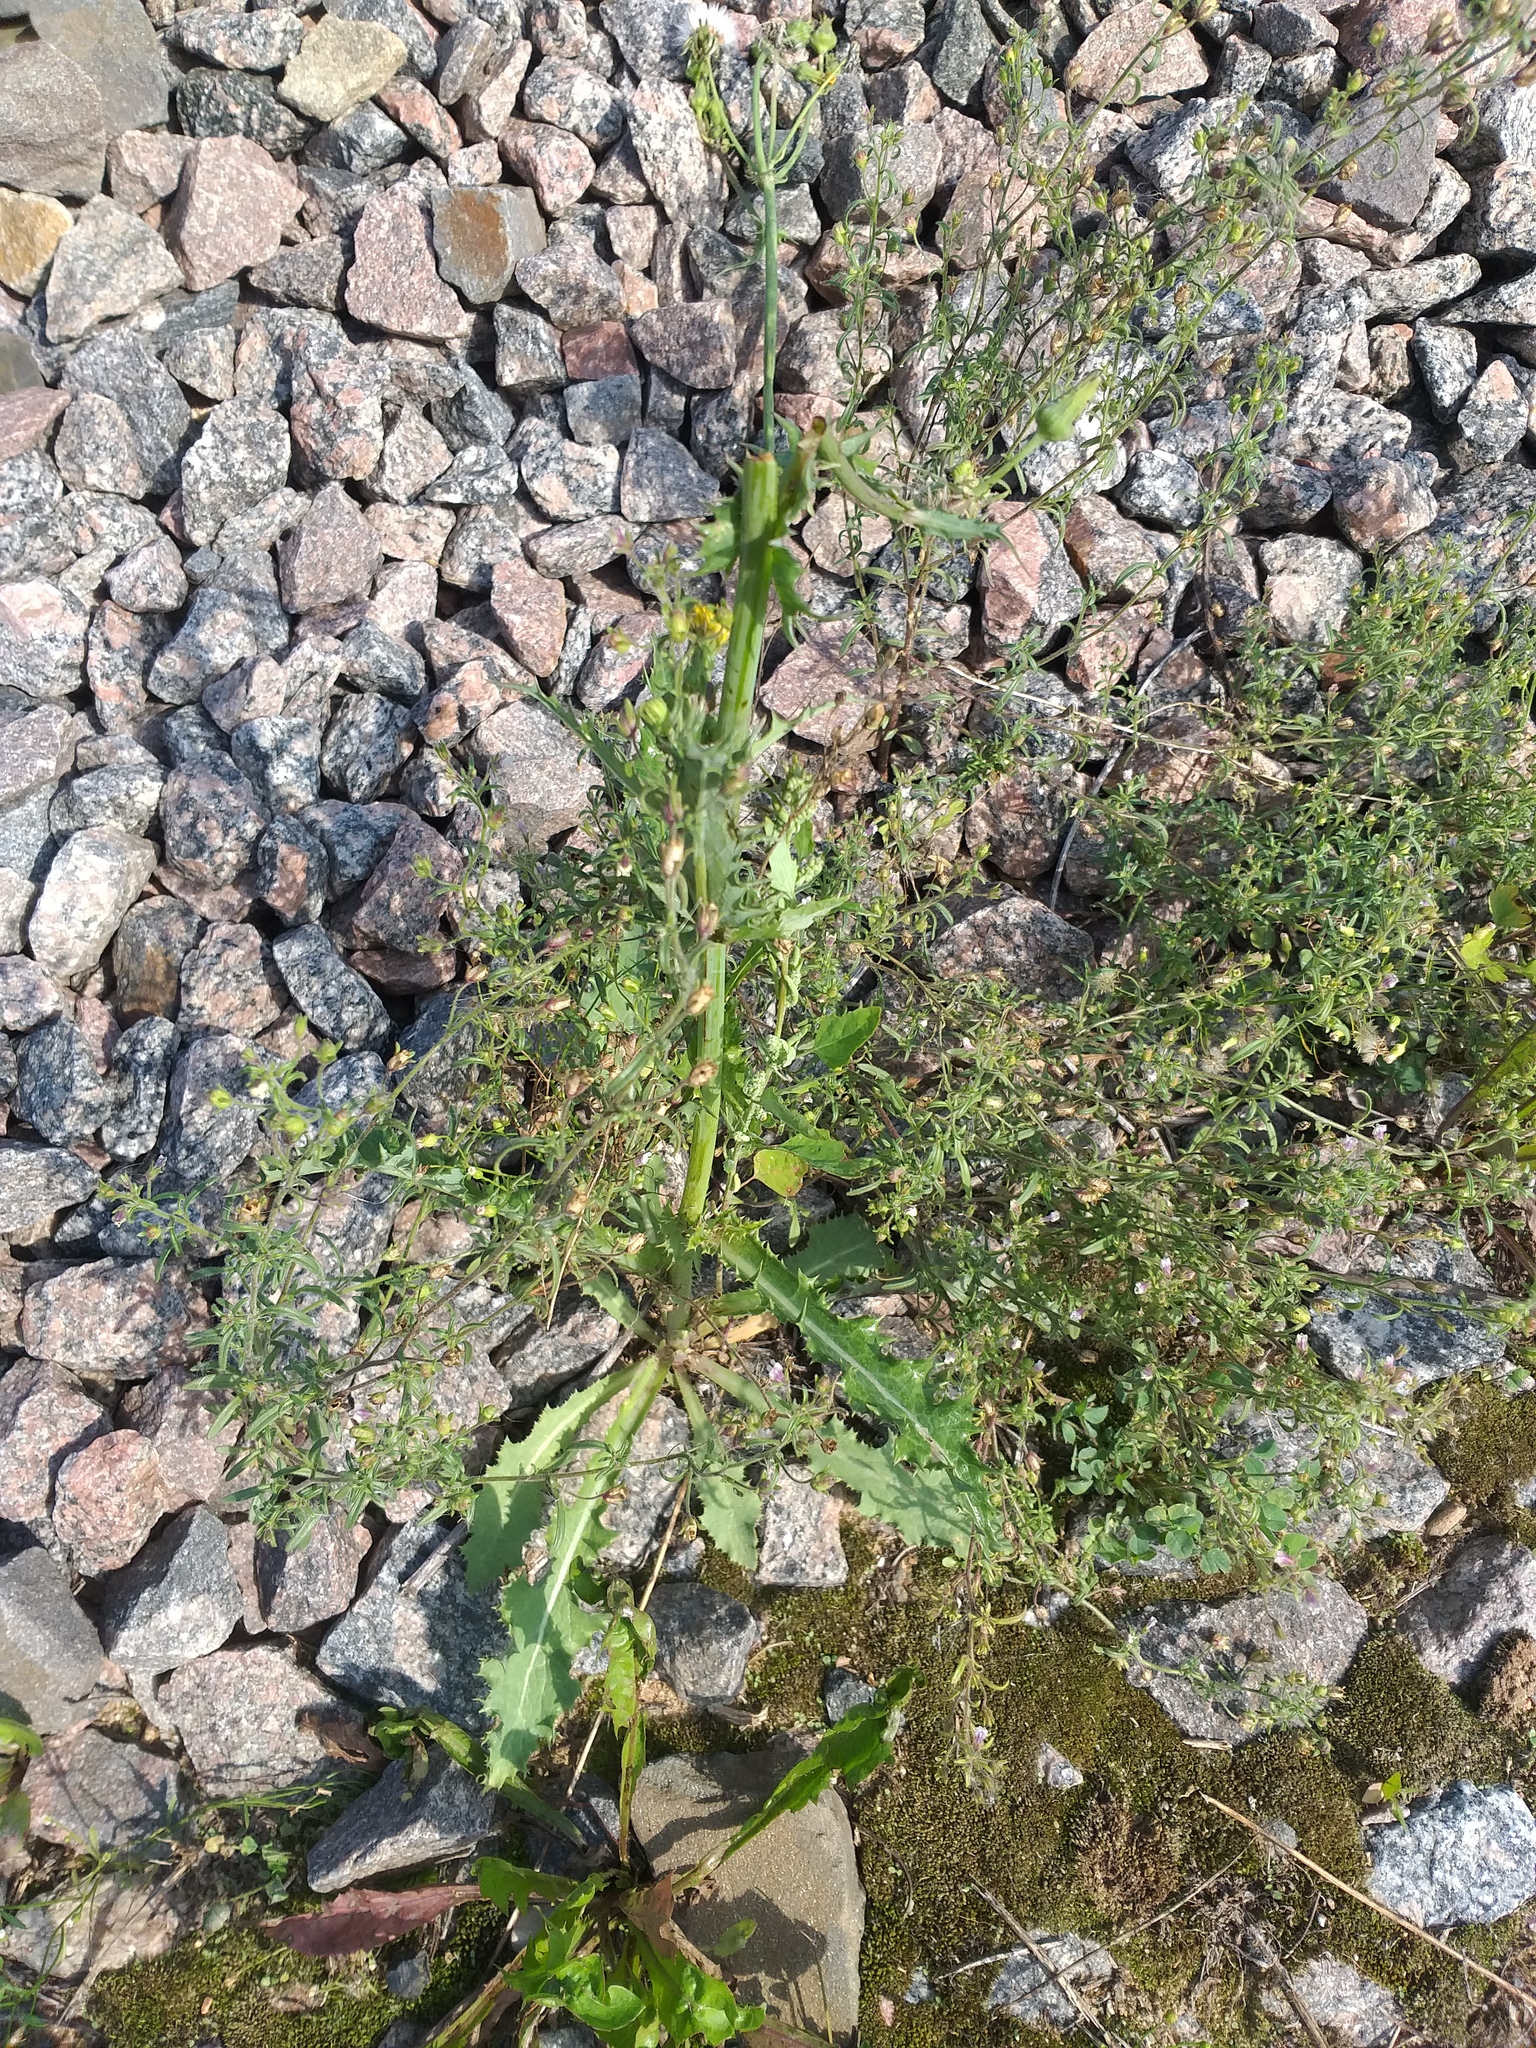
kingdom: Plantae
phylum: Tracheophyta
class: Magnoliopsida
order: Asterales
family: Asteraceae
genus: Sonchus
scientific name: Sonchus asper
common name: Prickly sow-thistle
